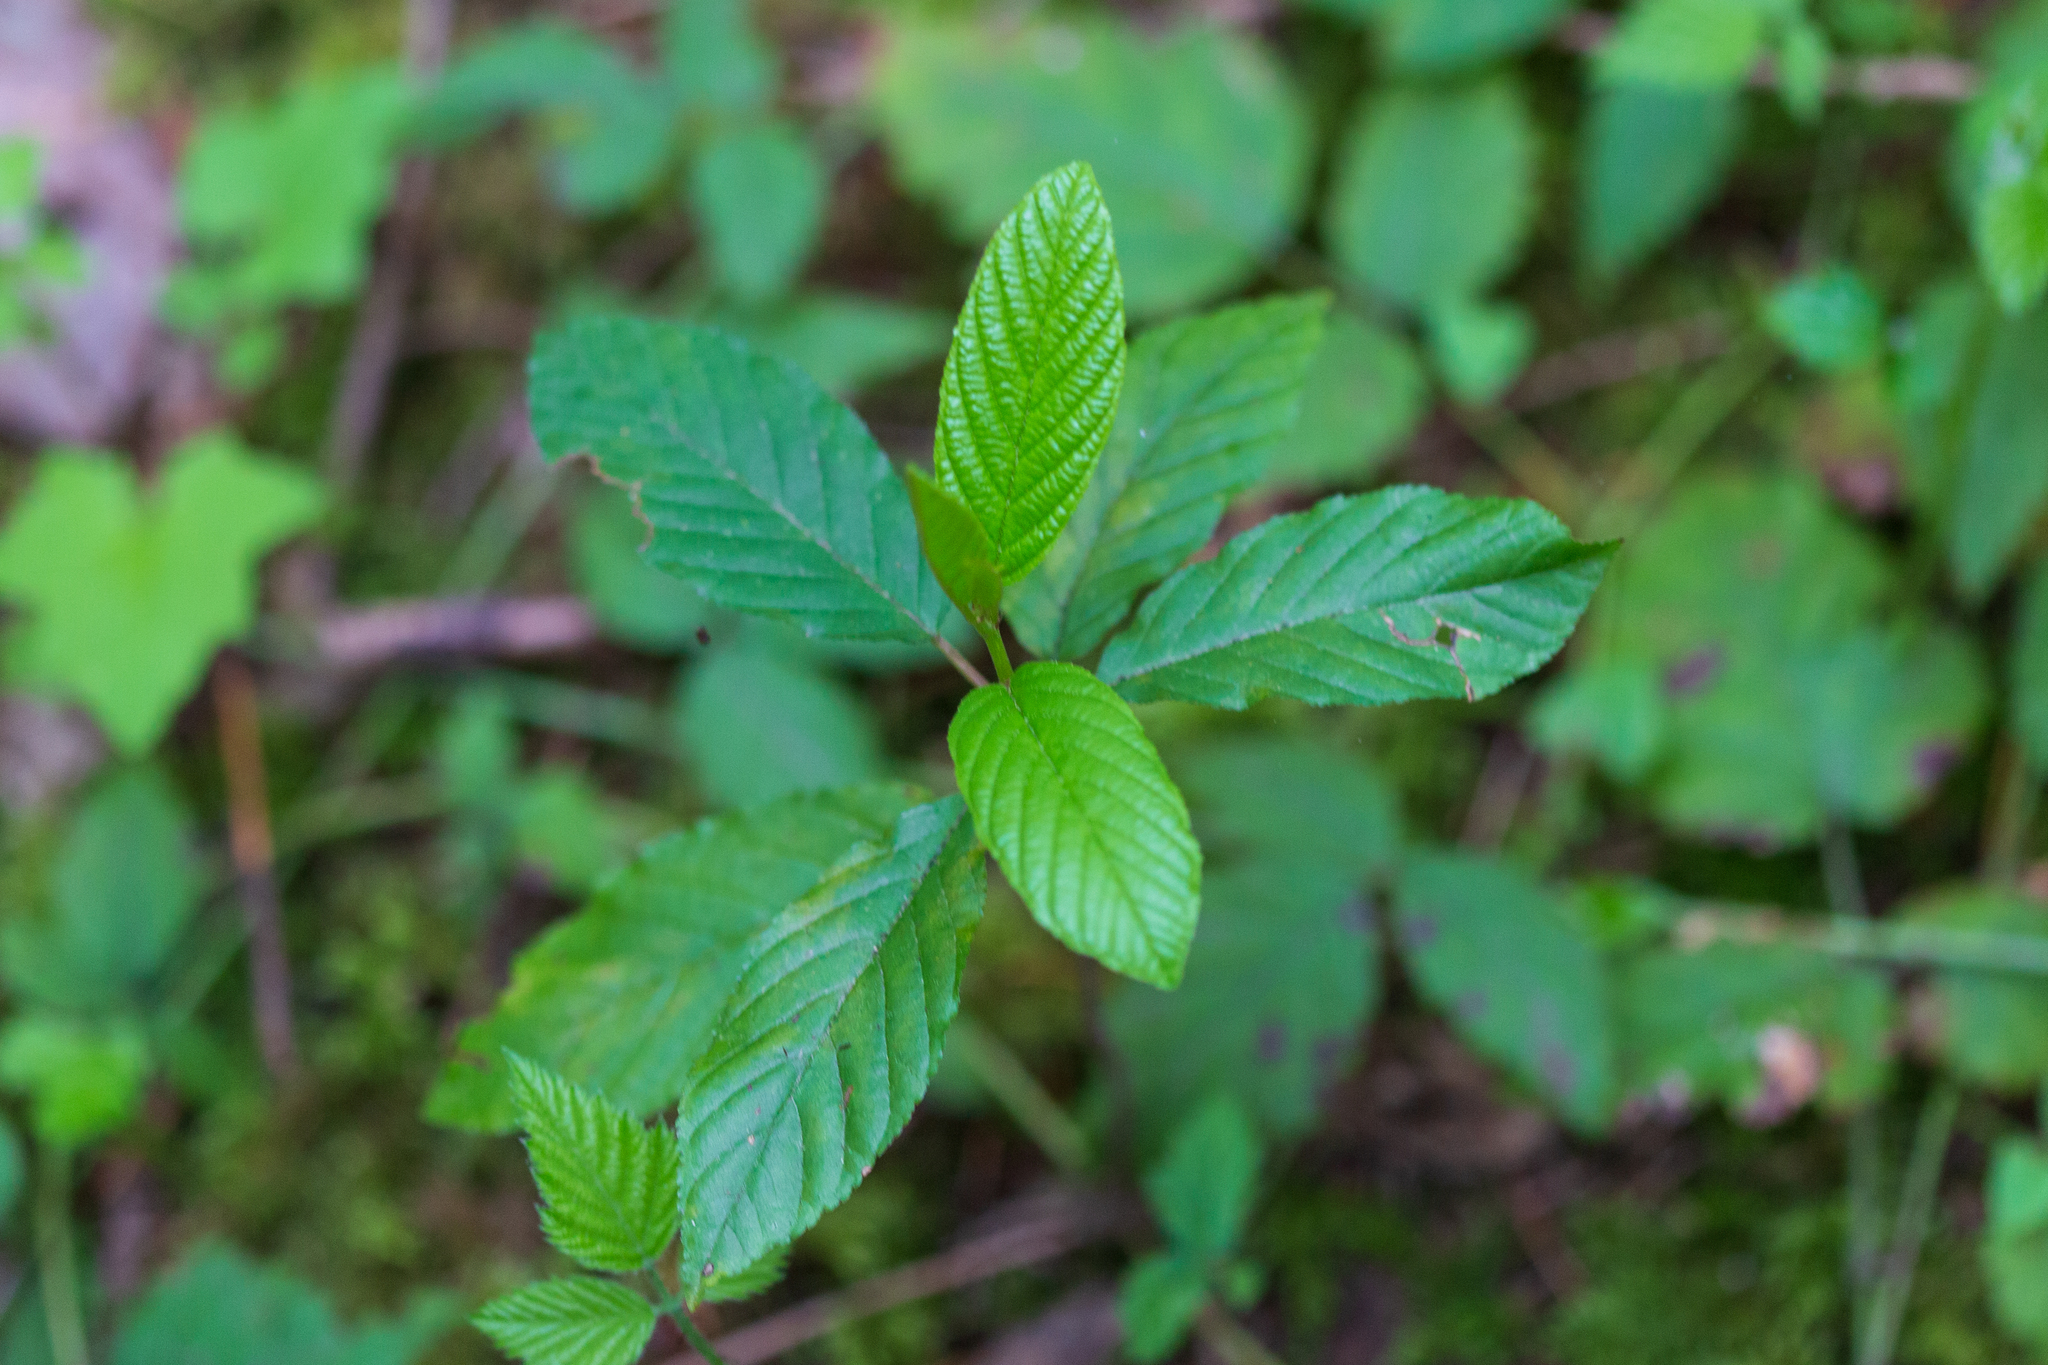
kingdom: Plantae
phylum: Tracheophyta
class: Magnoliopsida
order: Rosales
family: Rhamnaceae
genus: Frangula
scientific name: Frangula purshiana
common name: Cascara buckthorn
